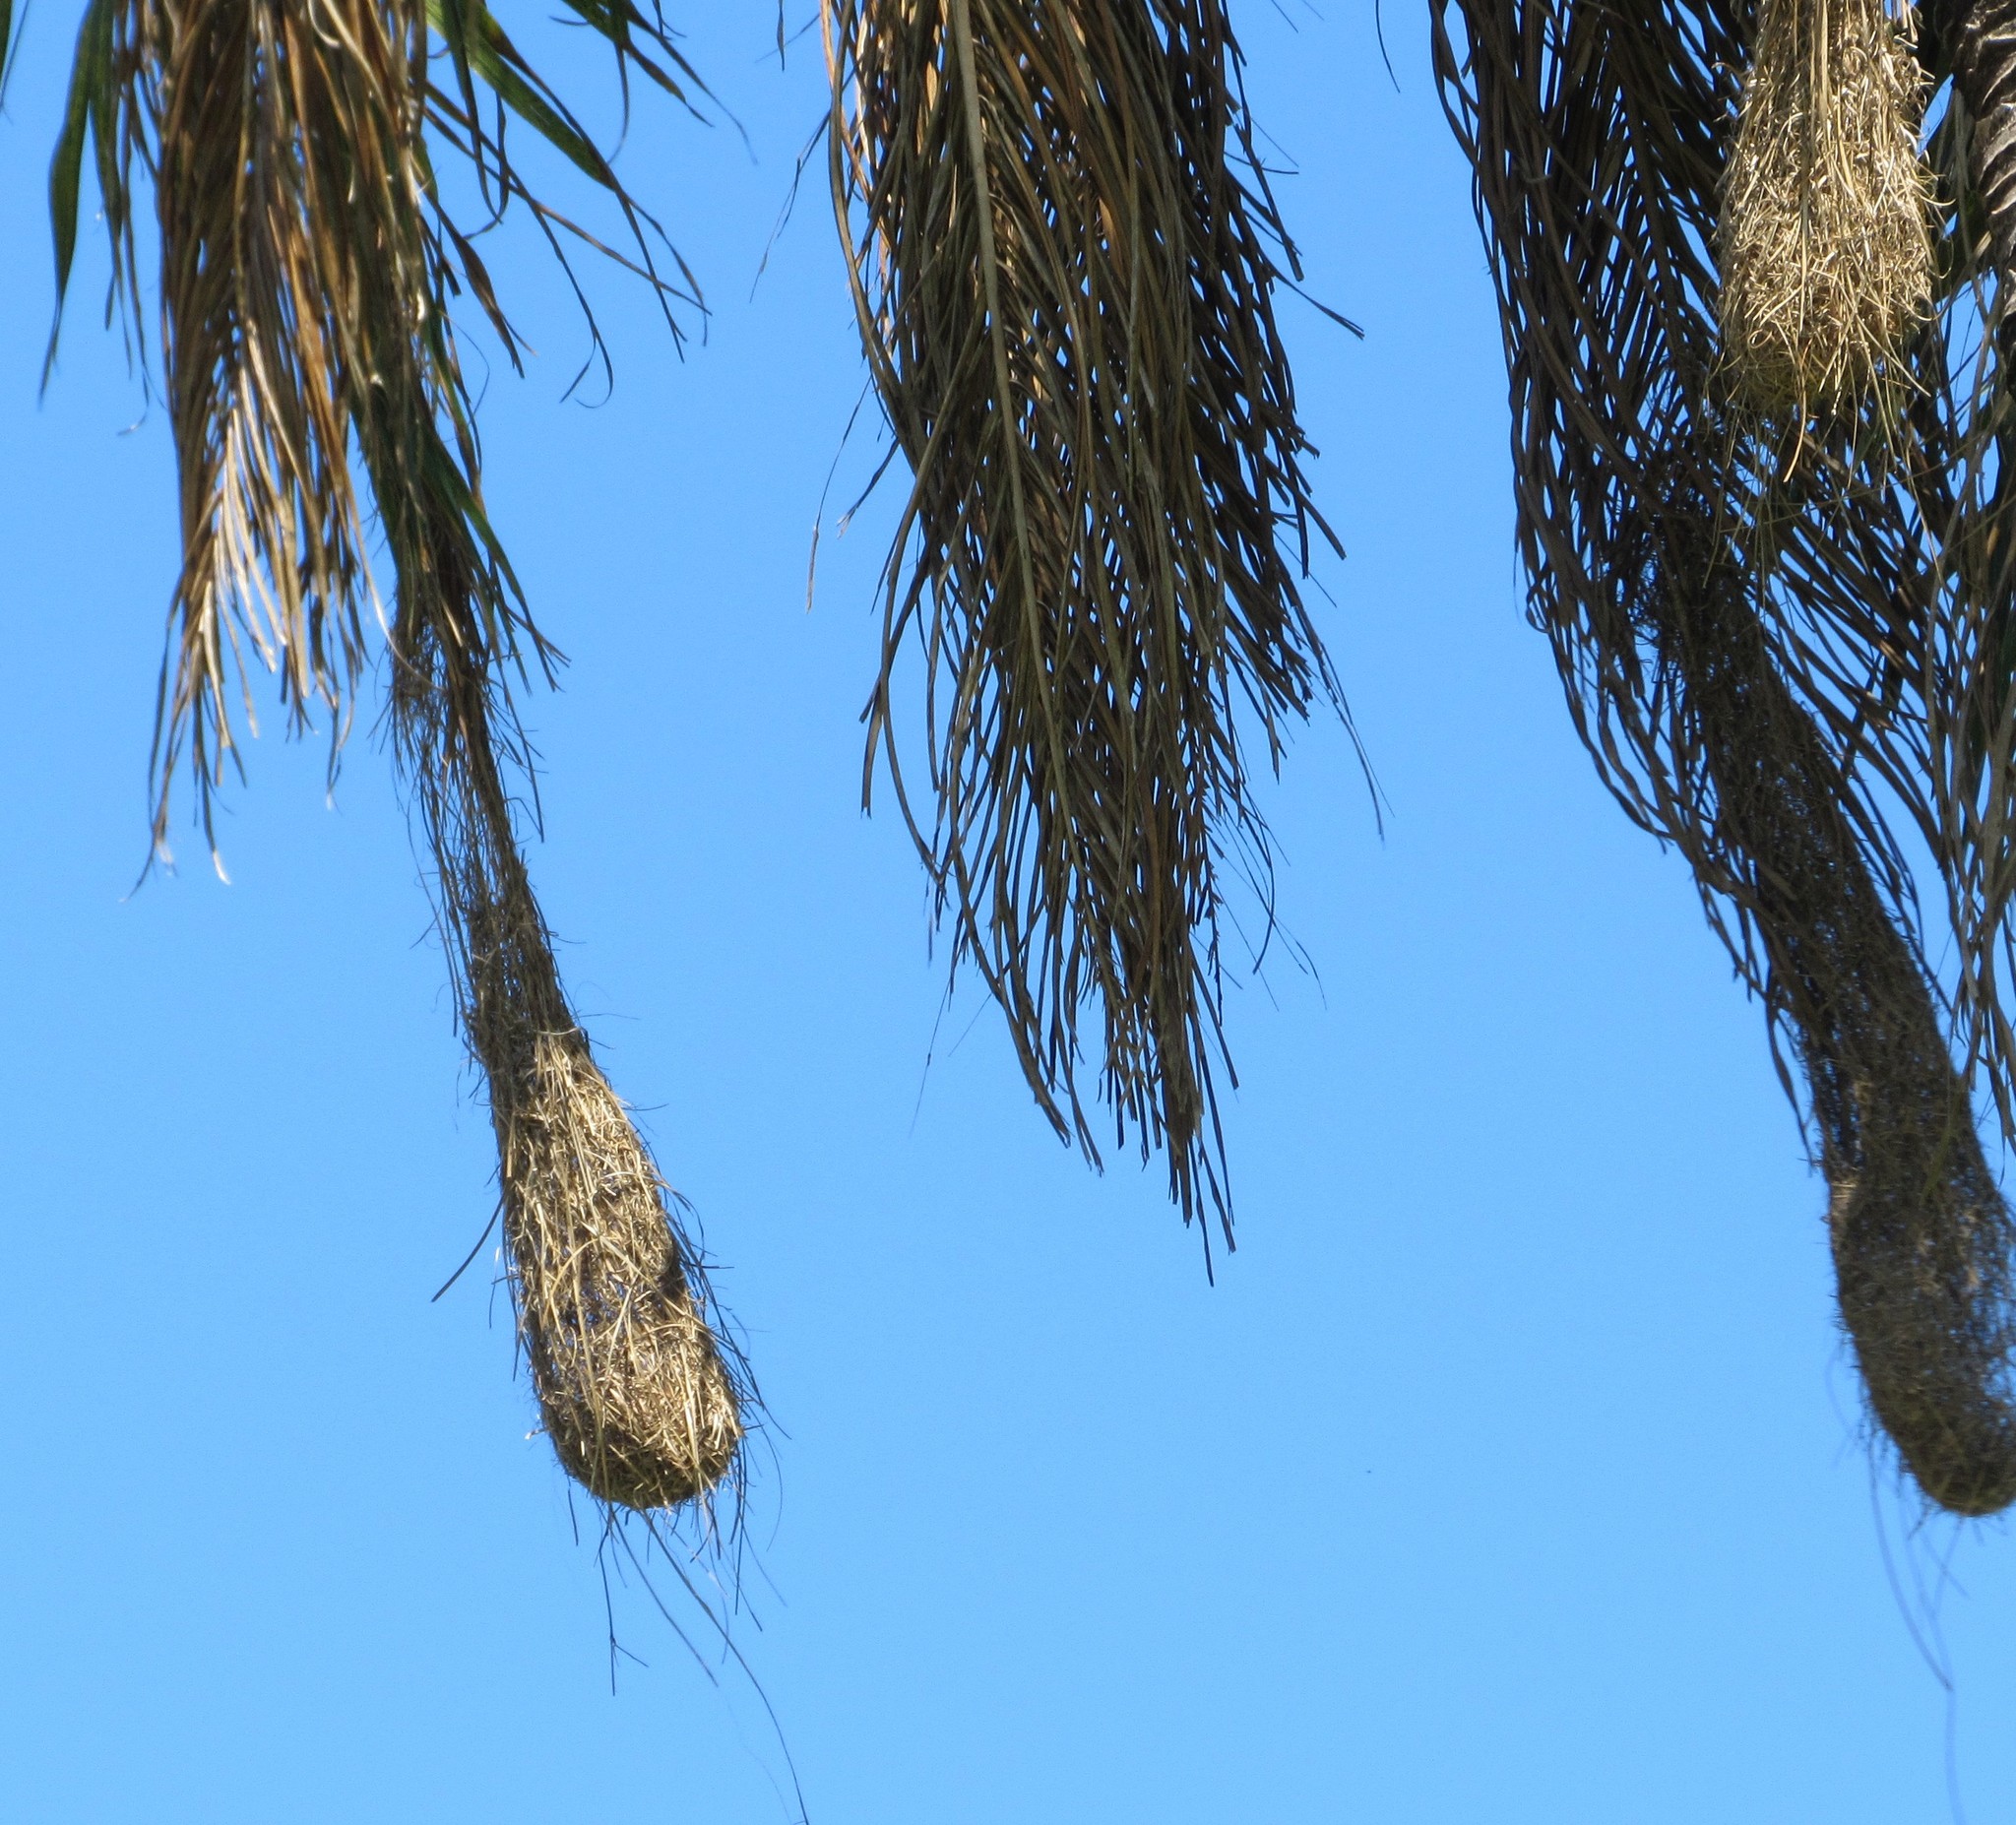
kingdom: Animalia
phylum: Chordata
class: Aves
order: Passeriformes
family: Icteridae
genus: Cacicus
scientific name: Cacicus haemorrhous
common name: Red-rumped cacique
